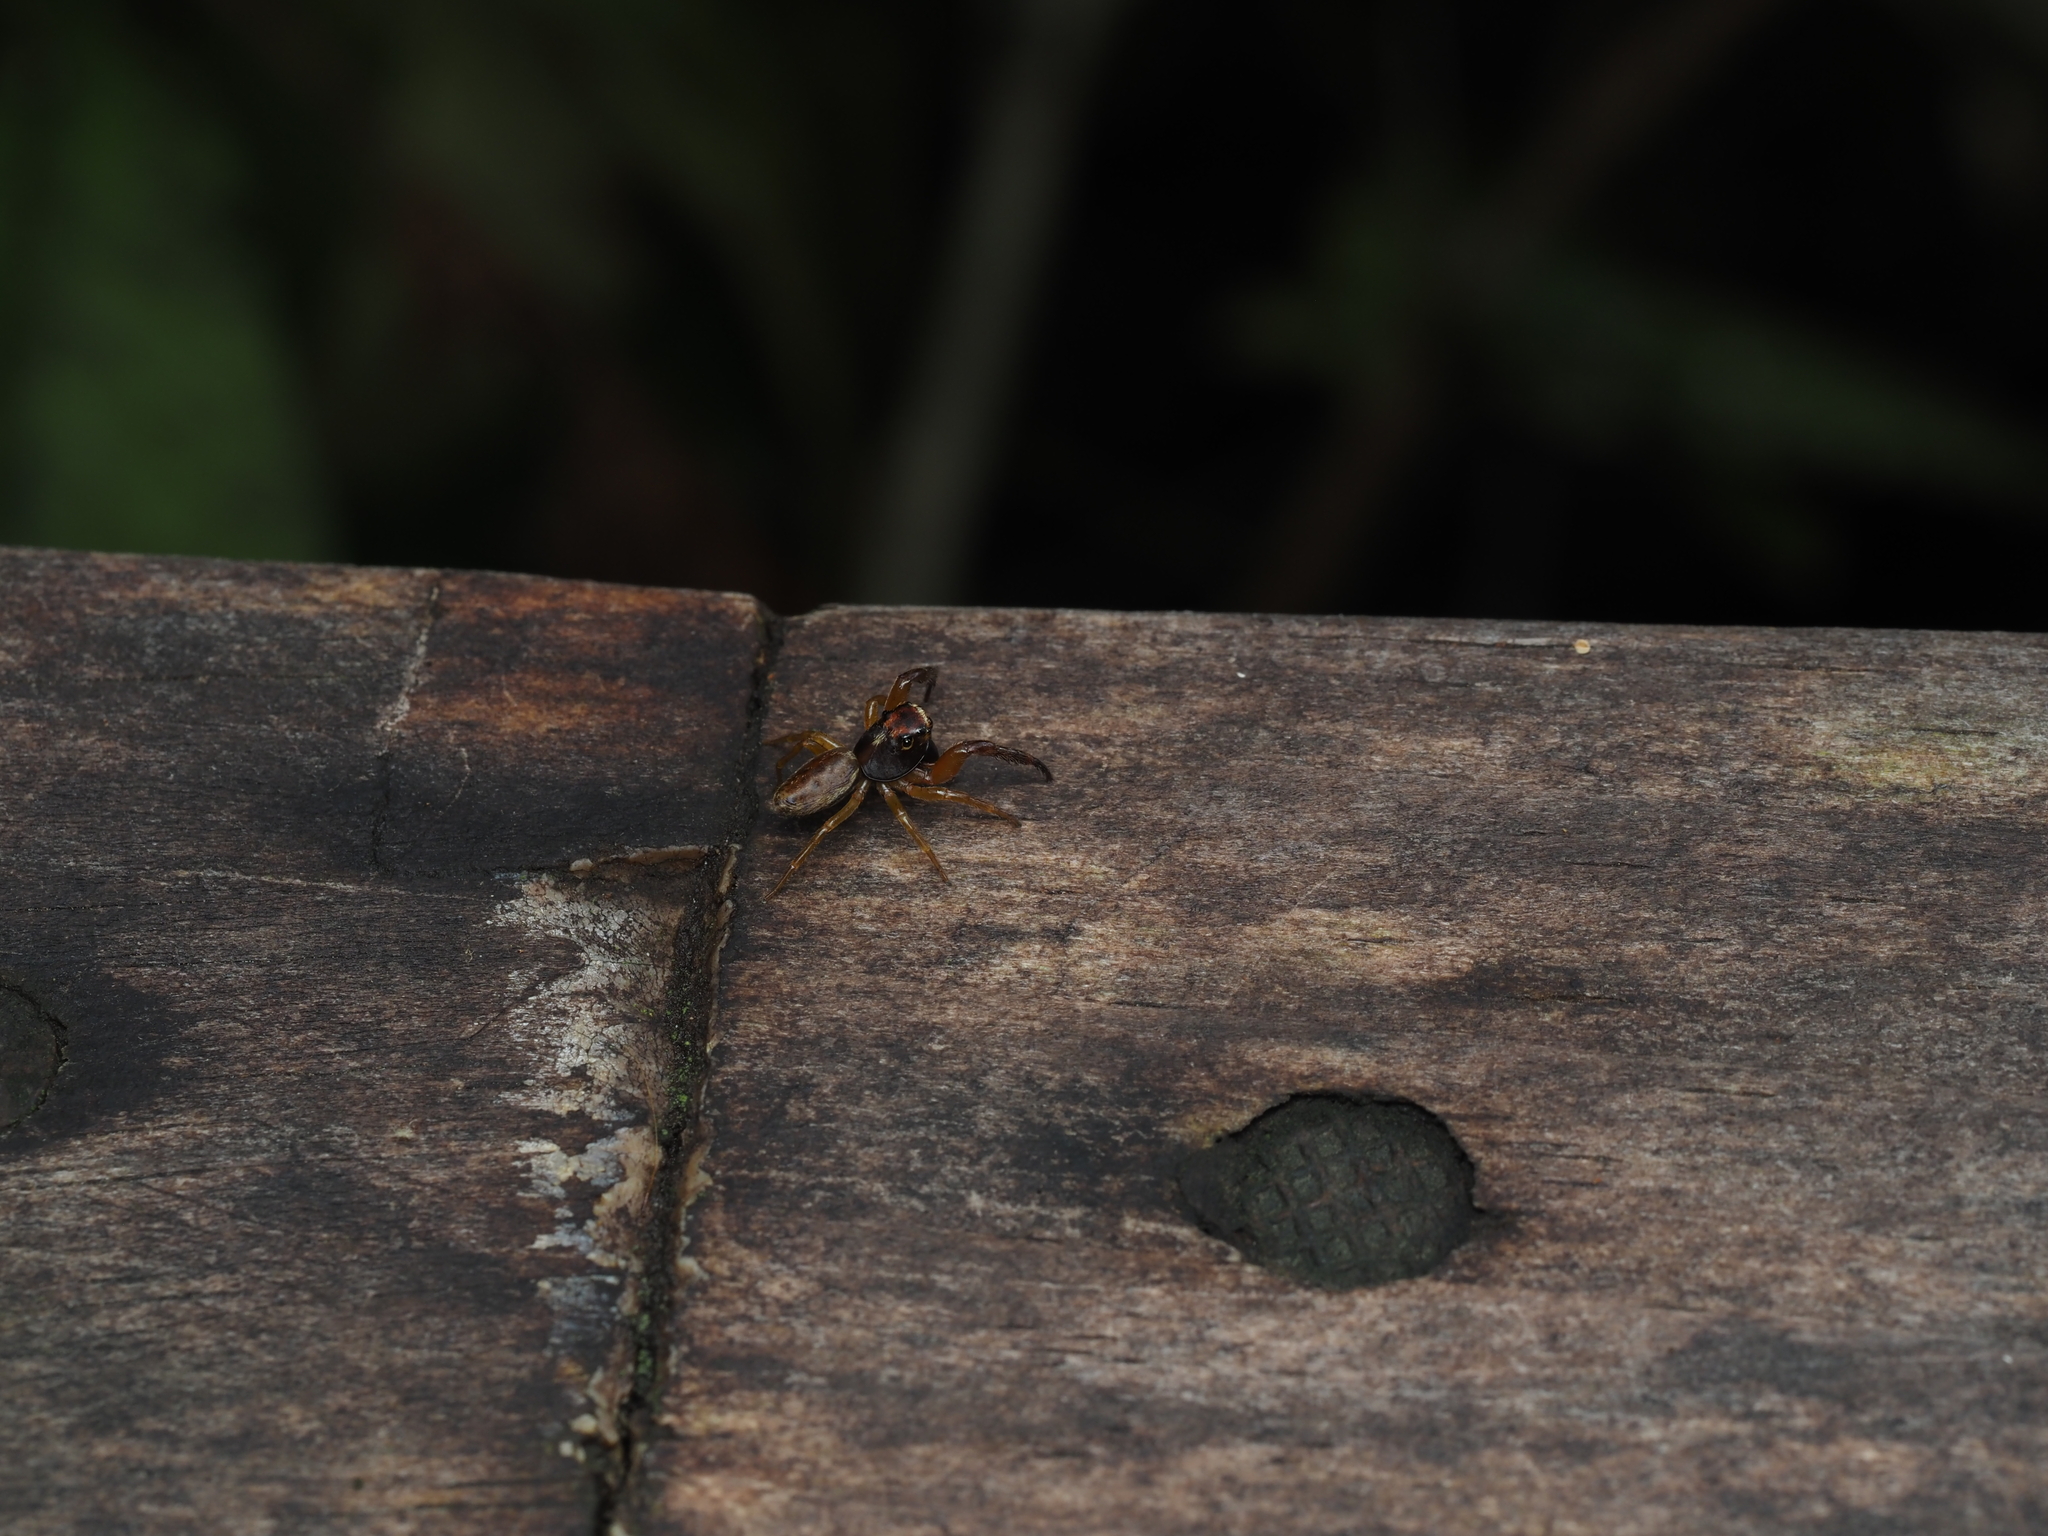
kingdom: Animalia
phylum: Arthropoda
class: Arachnida
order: Araneae
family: Salticidae
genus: Trite
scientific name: Trite mustilina
